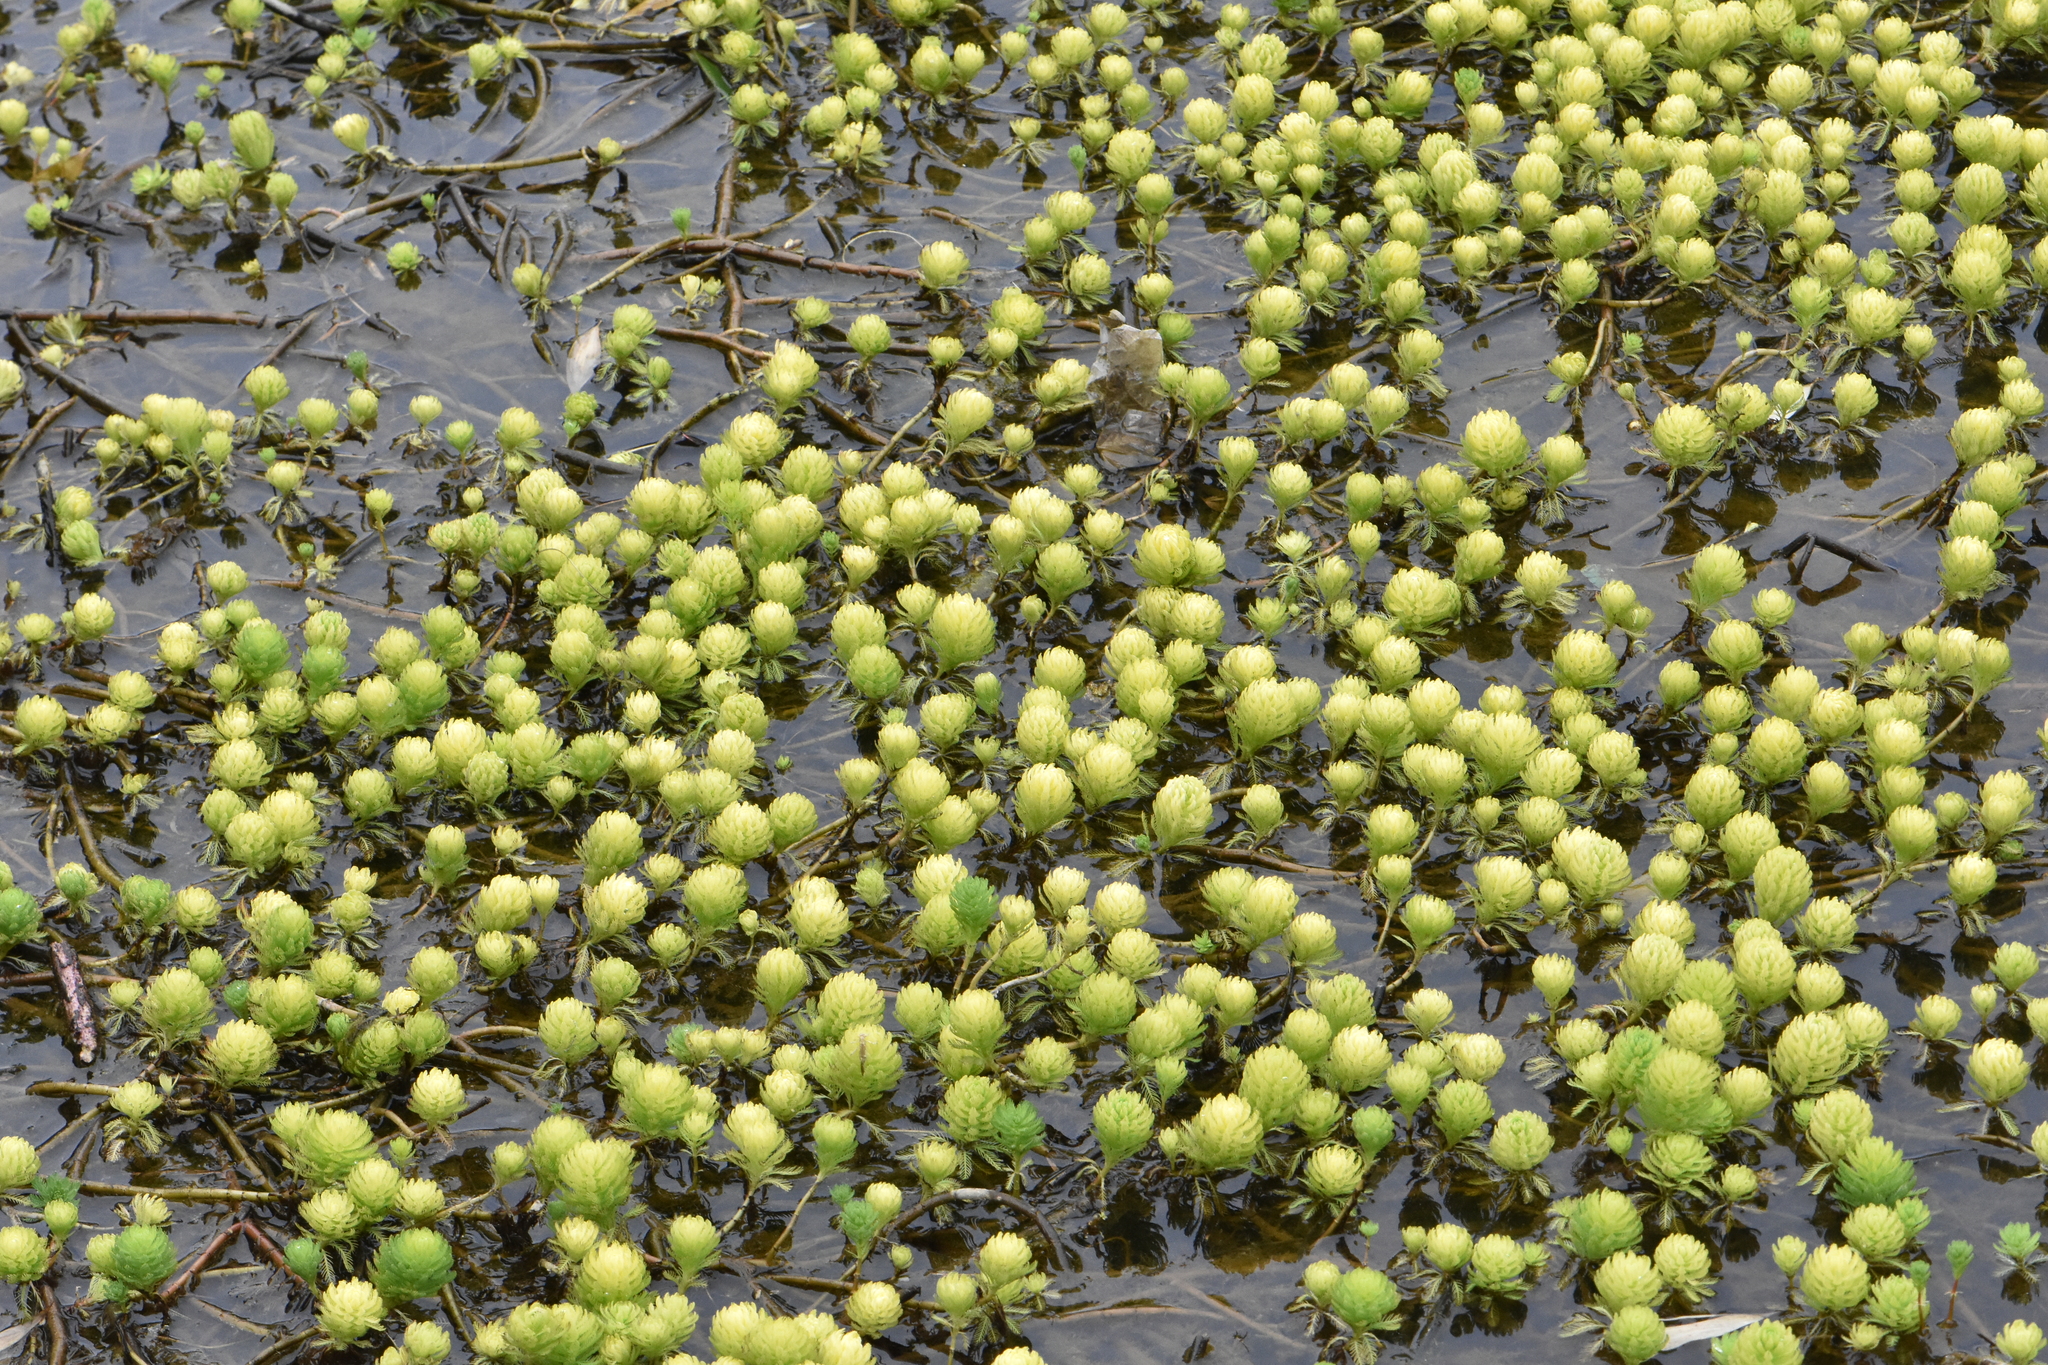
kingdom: Plantae
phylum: Tracheophyta
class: Magnoliopsida
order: Saxifragales
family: Haloragaceae
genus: Myriophyllum
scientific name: Myriophyllum aquaticum
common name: Parrot's feather
